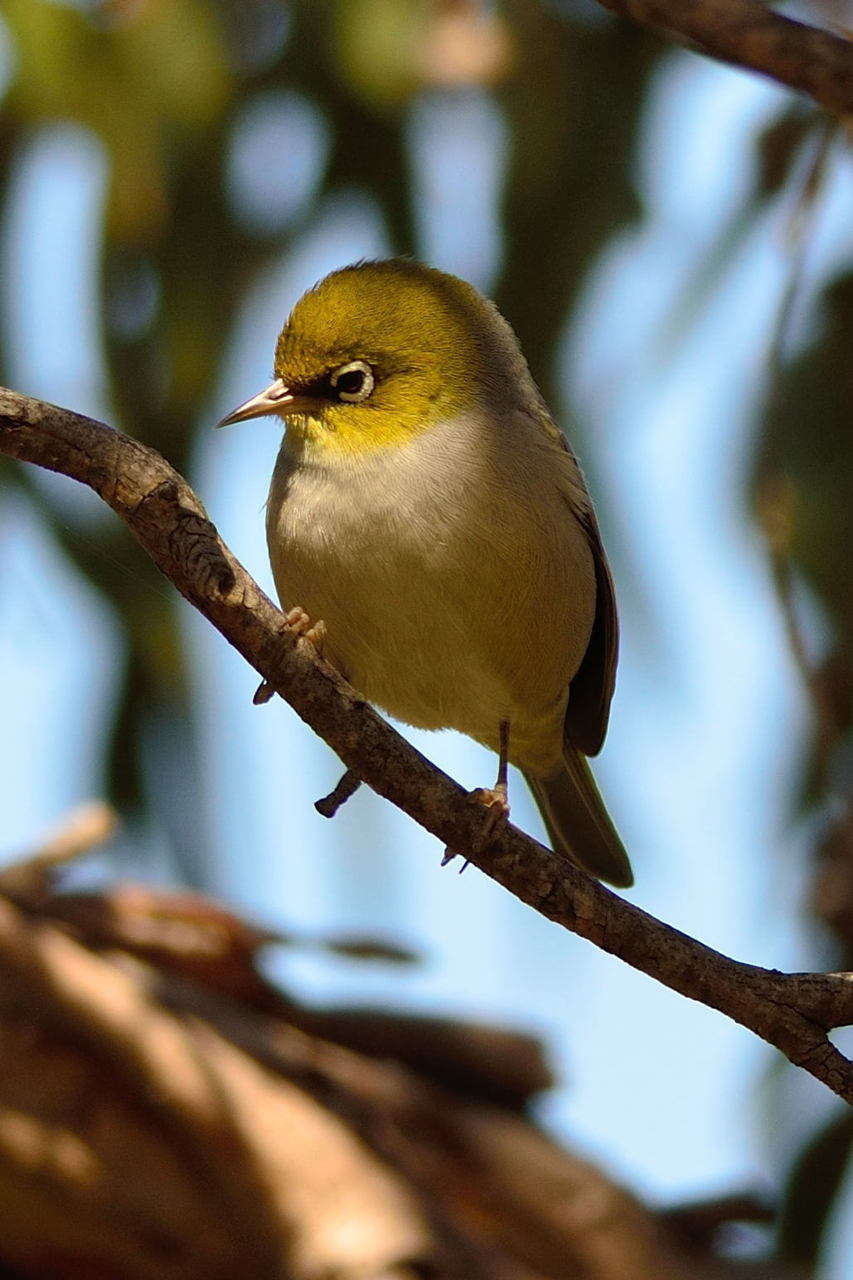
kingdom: Animalia
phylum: Chordata
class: Aves
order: Passeriformes
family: Zosteropidae
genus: Zosterops
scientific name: Zosterops lateralis
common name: Silvereye
